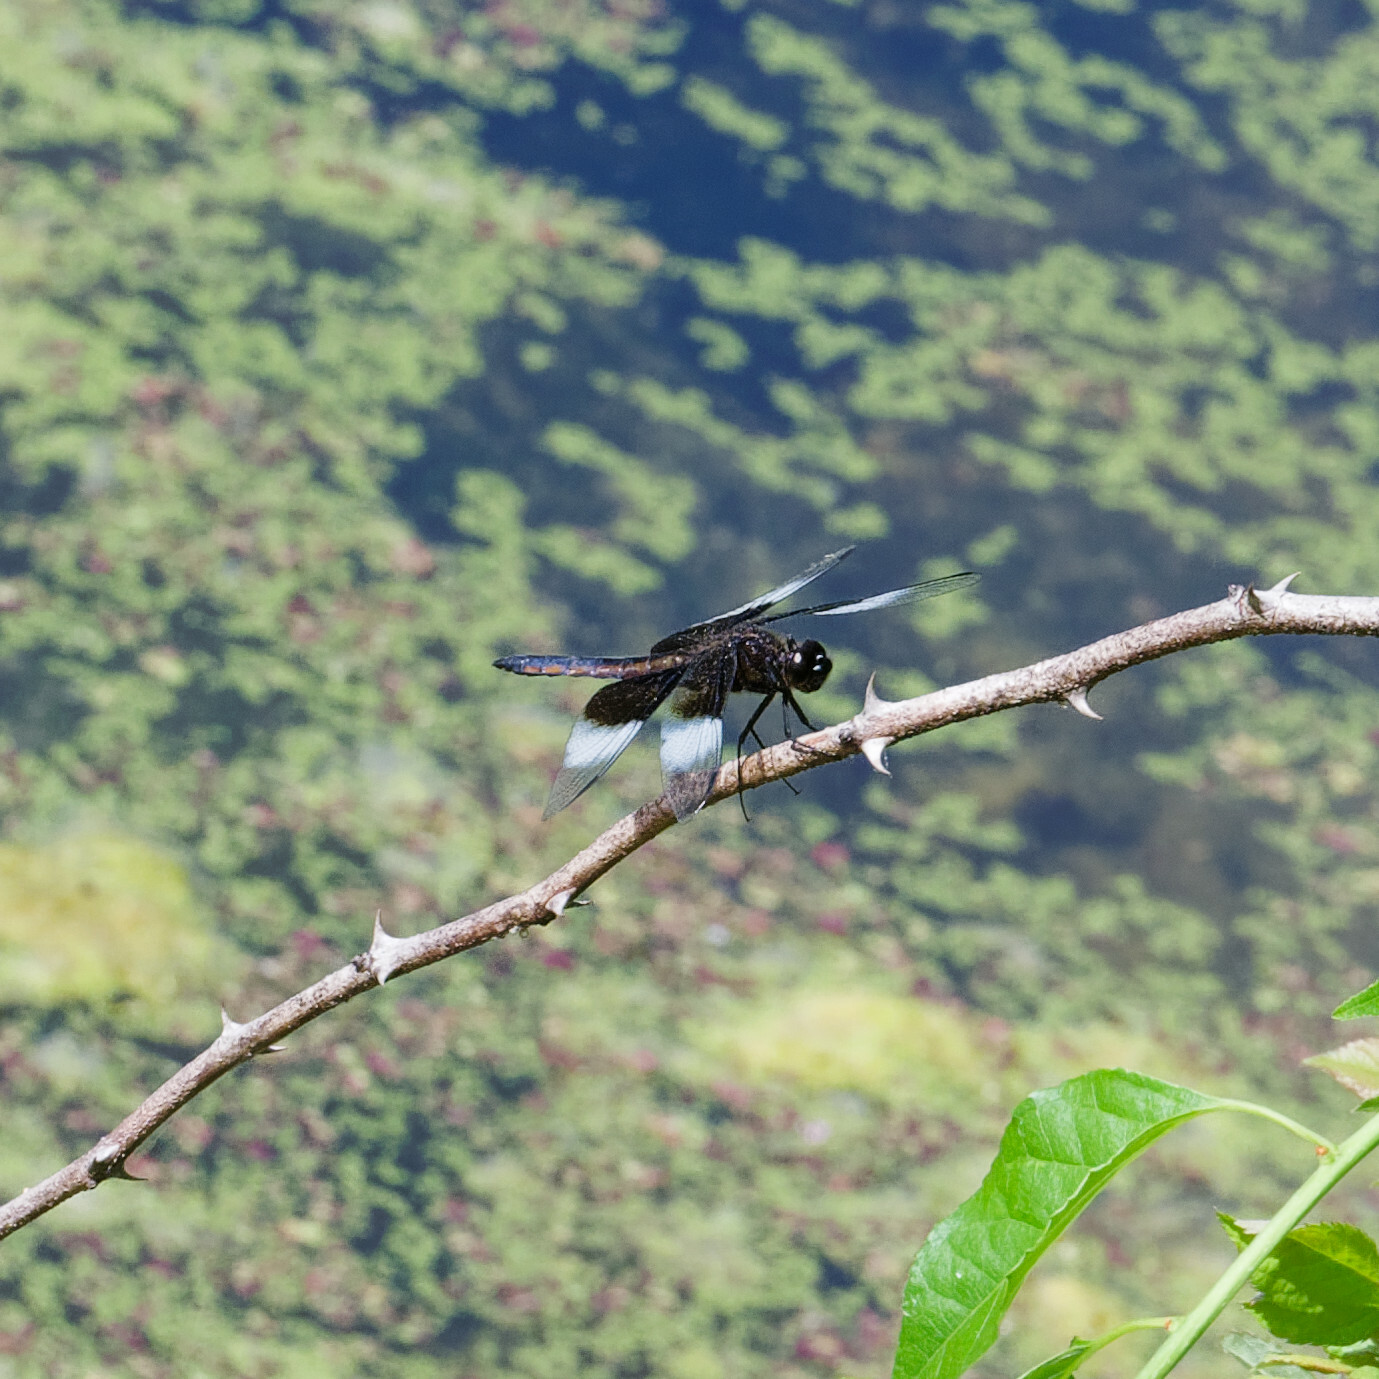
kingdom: Animalia
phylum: Arthropoda
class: Insecta
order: Odonata
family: Libellulidae
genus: Libellula
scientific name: Libellula luctuosa
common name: Widow skimmer
